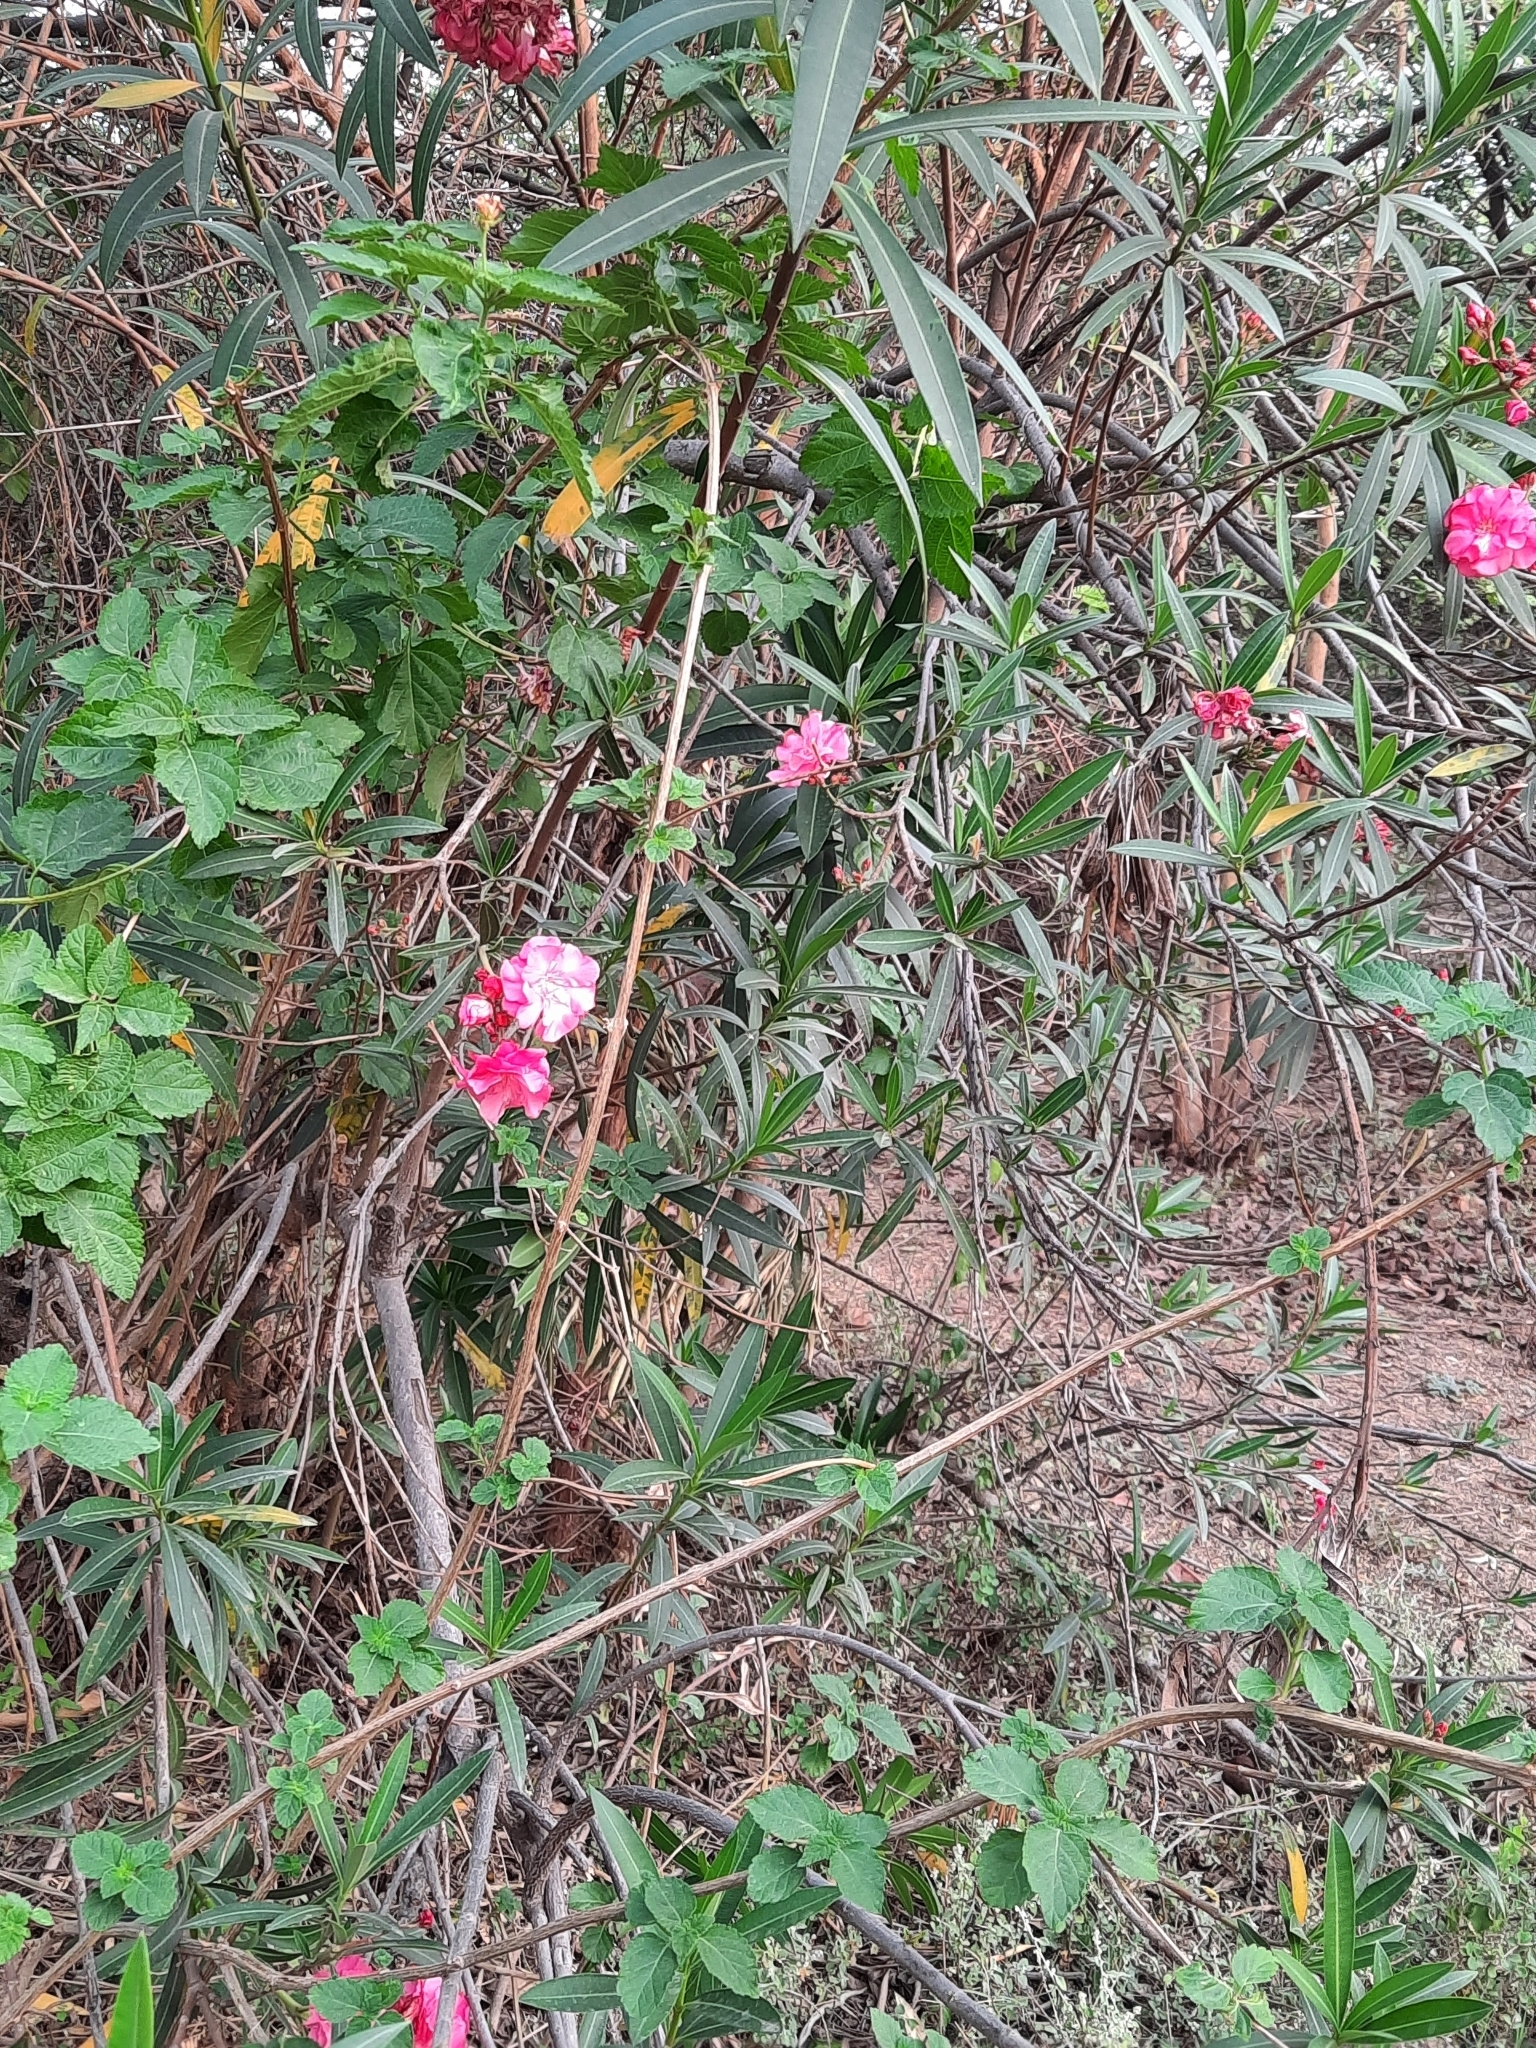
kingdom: Plantae
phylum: Tracheophyta
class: Magnoliopsida
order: Gentianales
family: Apocynaceae
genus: Nerium
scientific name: Nerium oleander
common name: Oleander
